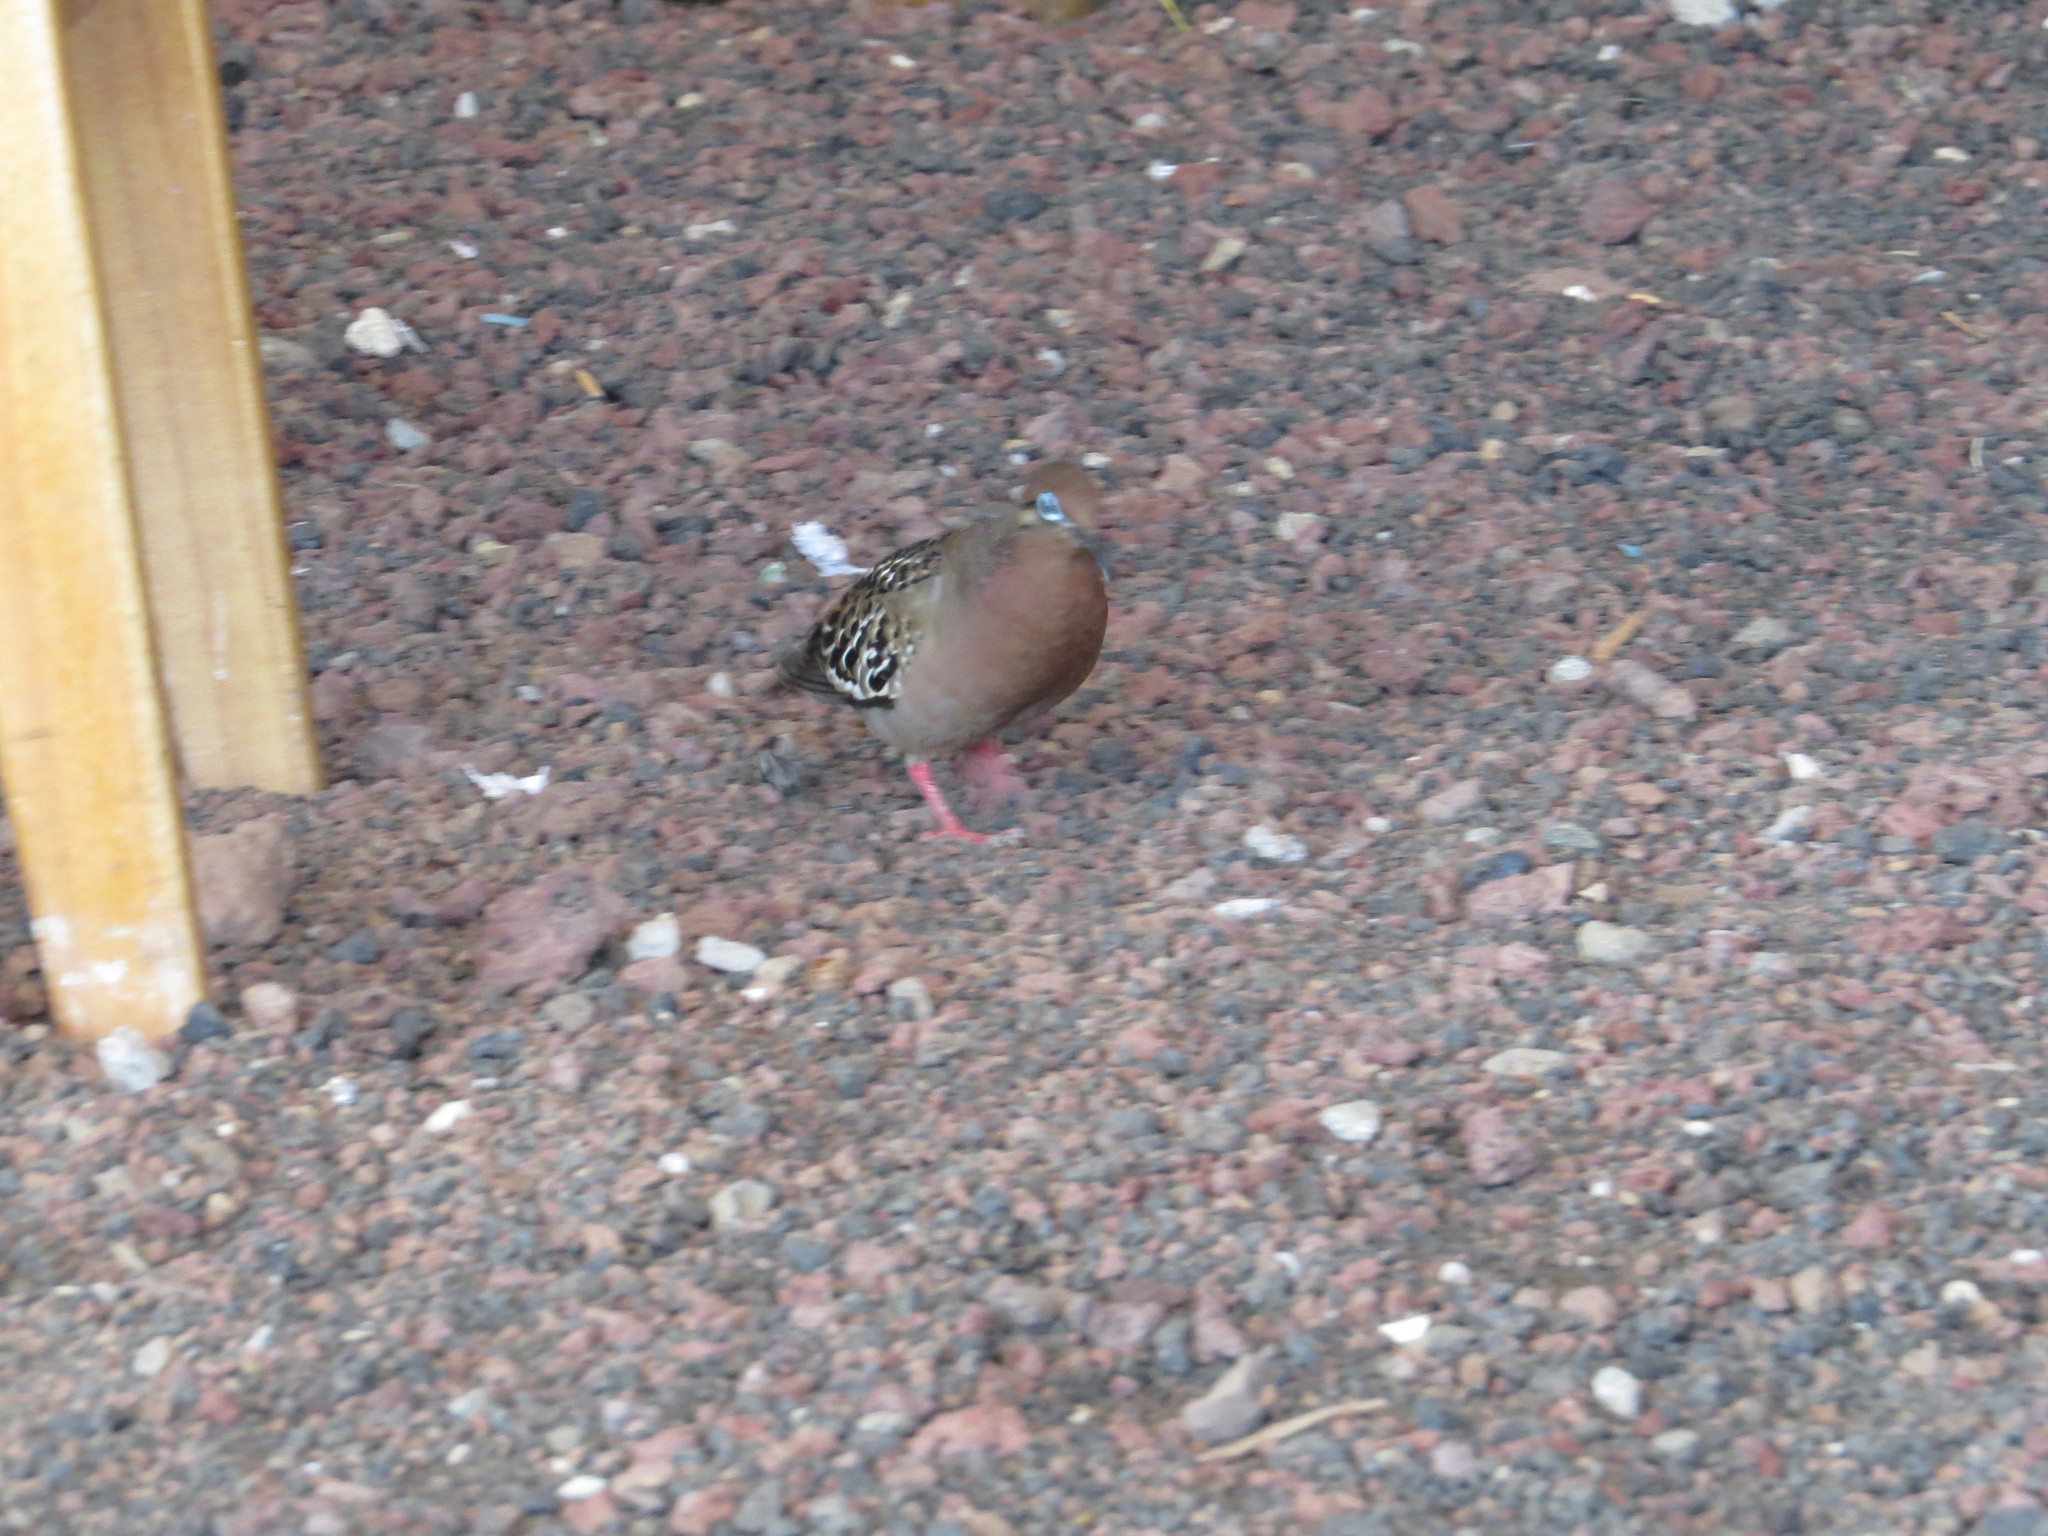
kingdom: Animalia
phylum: Chordata
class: Aves
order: Columbiformes
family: Columbidae
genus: Zenaida
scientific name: Zenaida galapagoensis
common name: Galapagos dove
